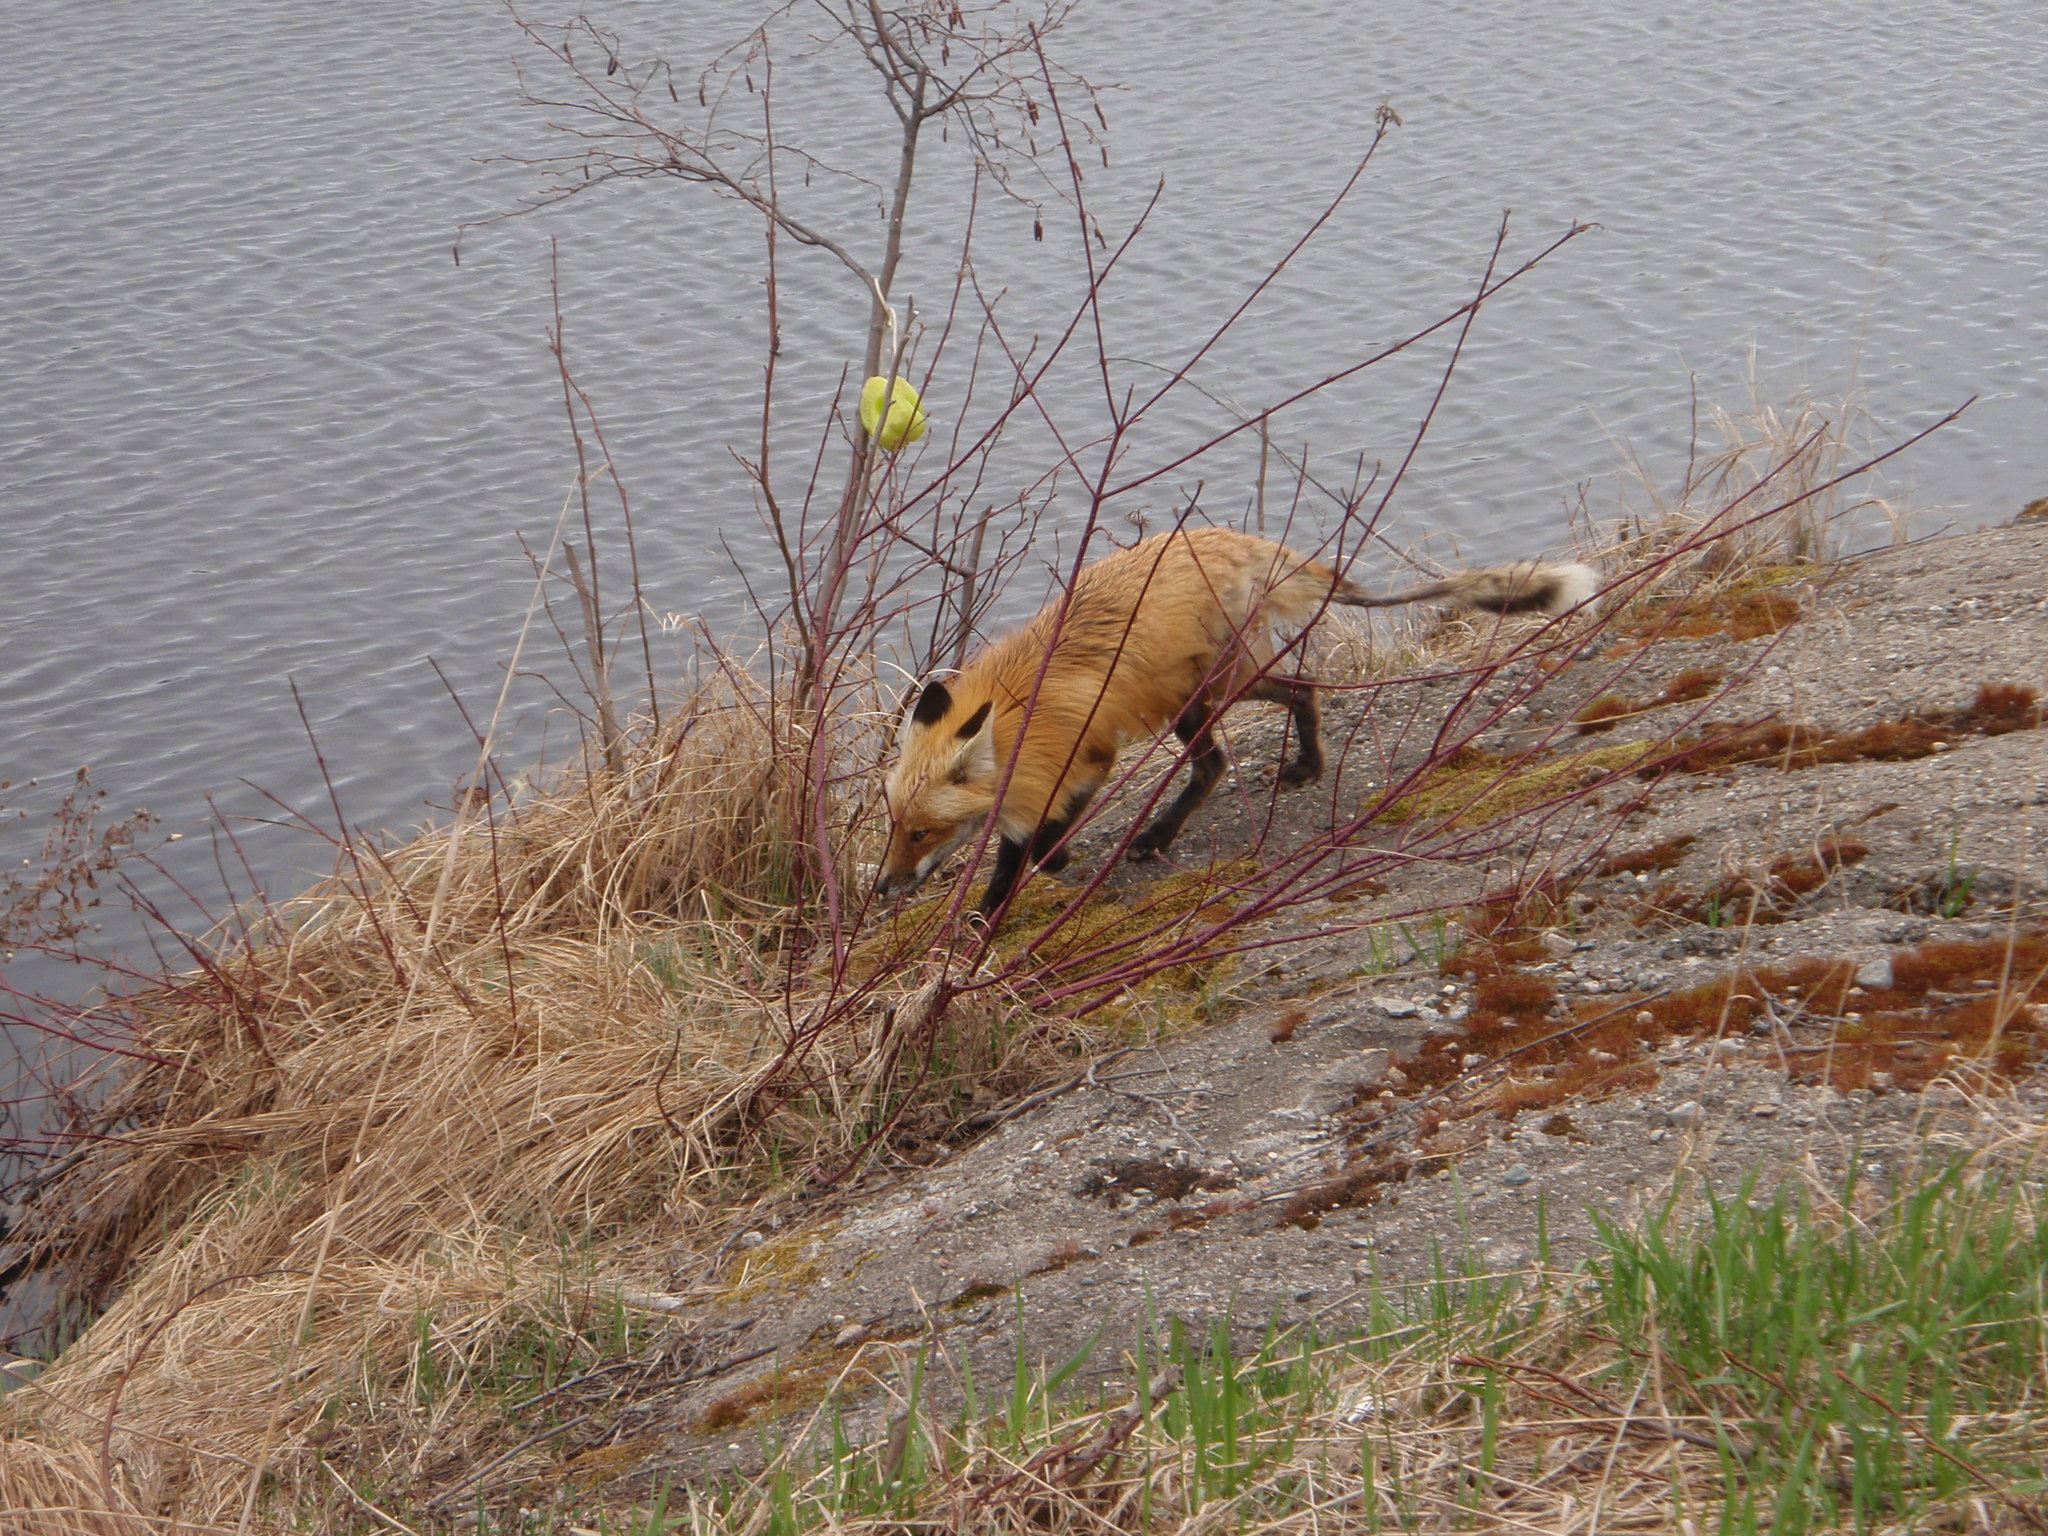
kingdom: Animalia
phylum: Chordata
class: Mammalia
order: Carnivora
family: Canidae
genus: Vulpes
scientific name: Vulpes vulpes
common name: Red fox
